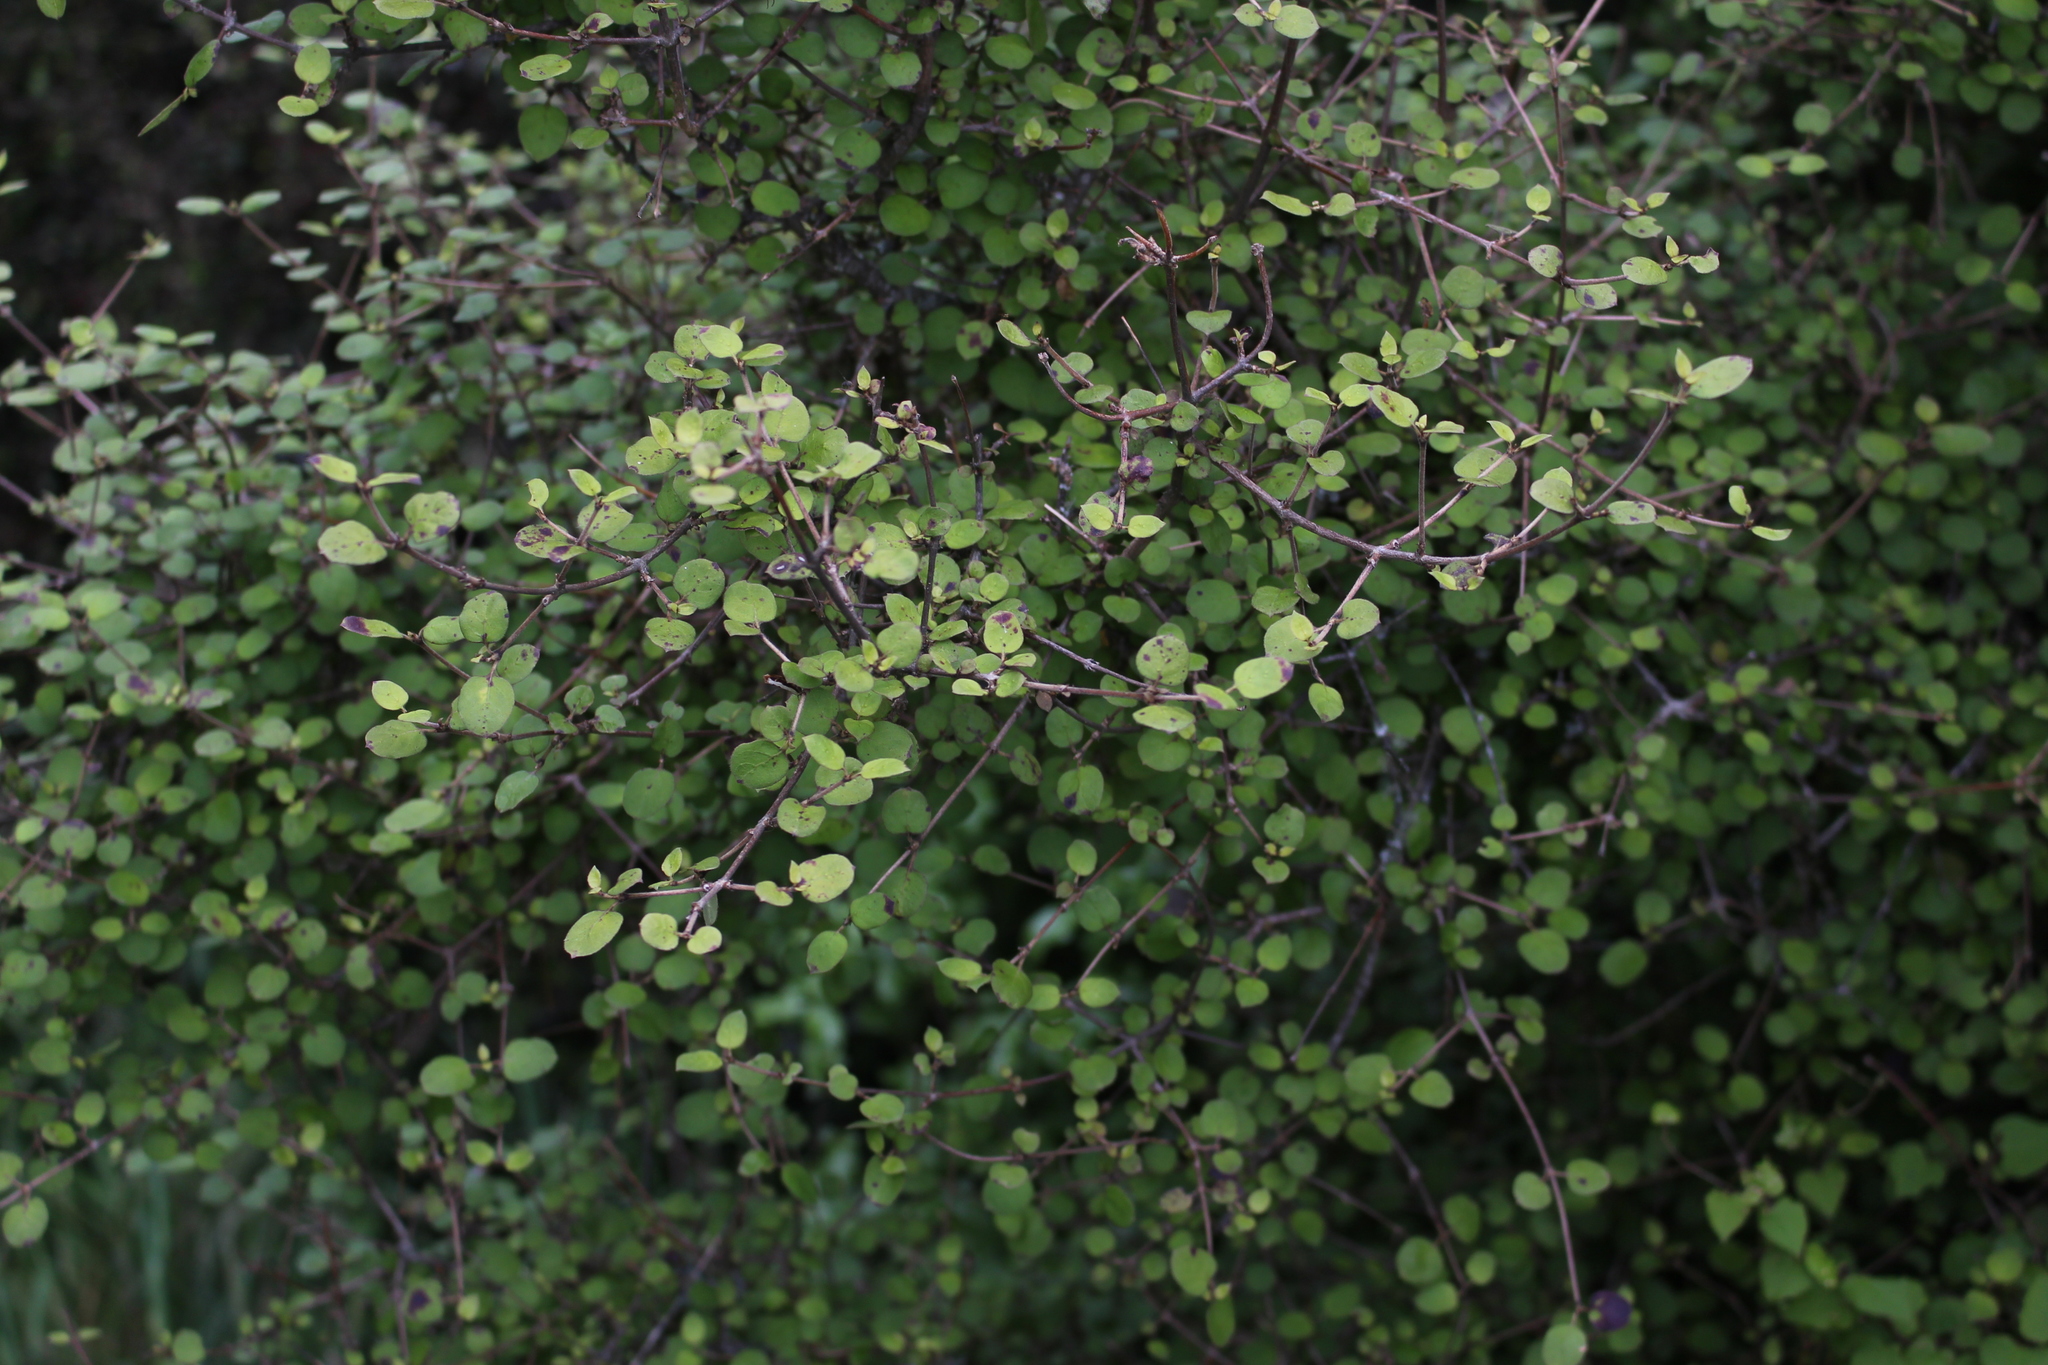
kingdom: Plantae
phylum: Tracheophyta
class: Magnoliopsida
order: Gentianales
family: Rubiaceae
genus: Coprosma
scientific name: Coprosma rotundifolia
